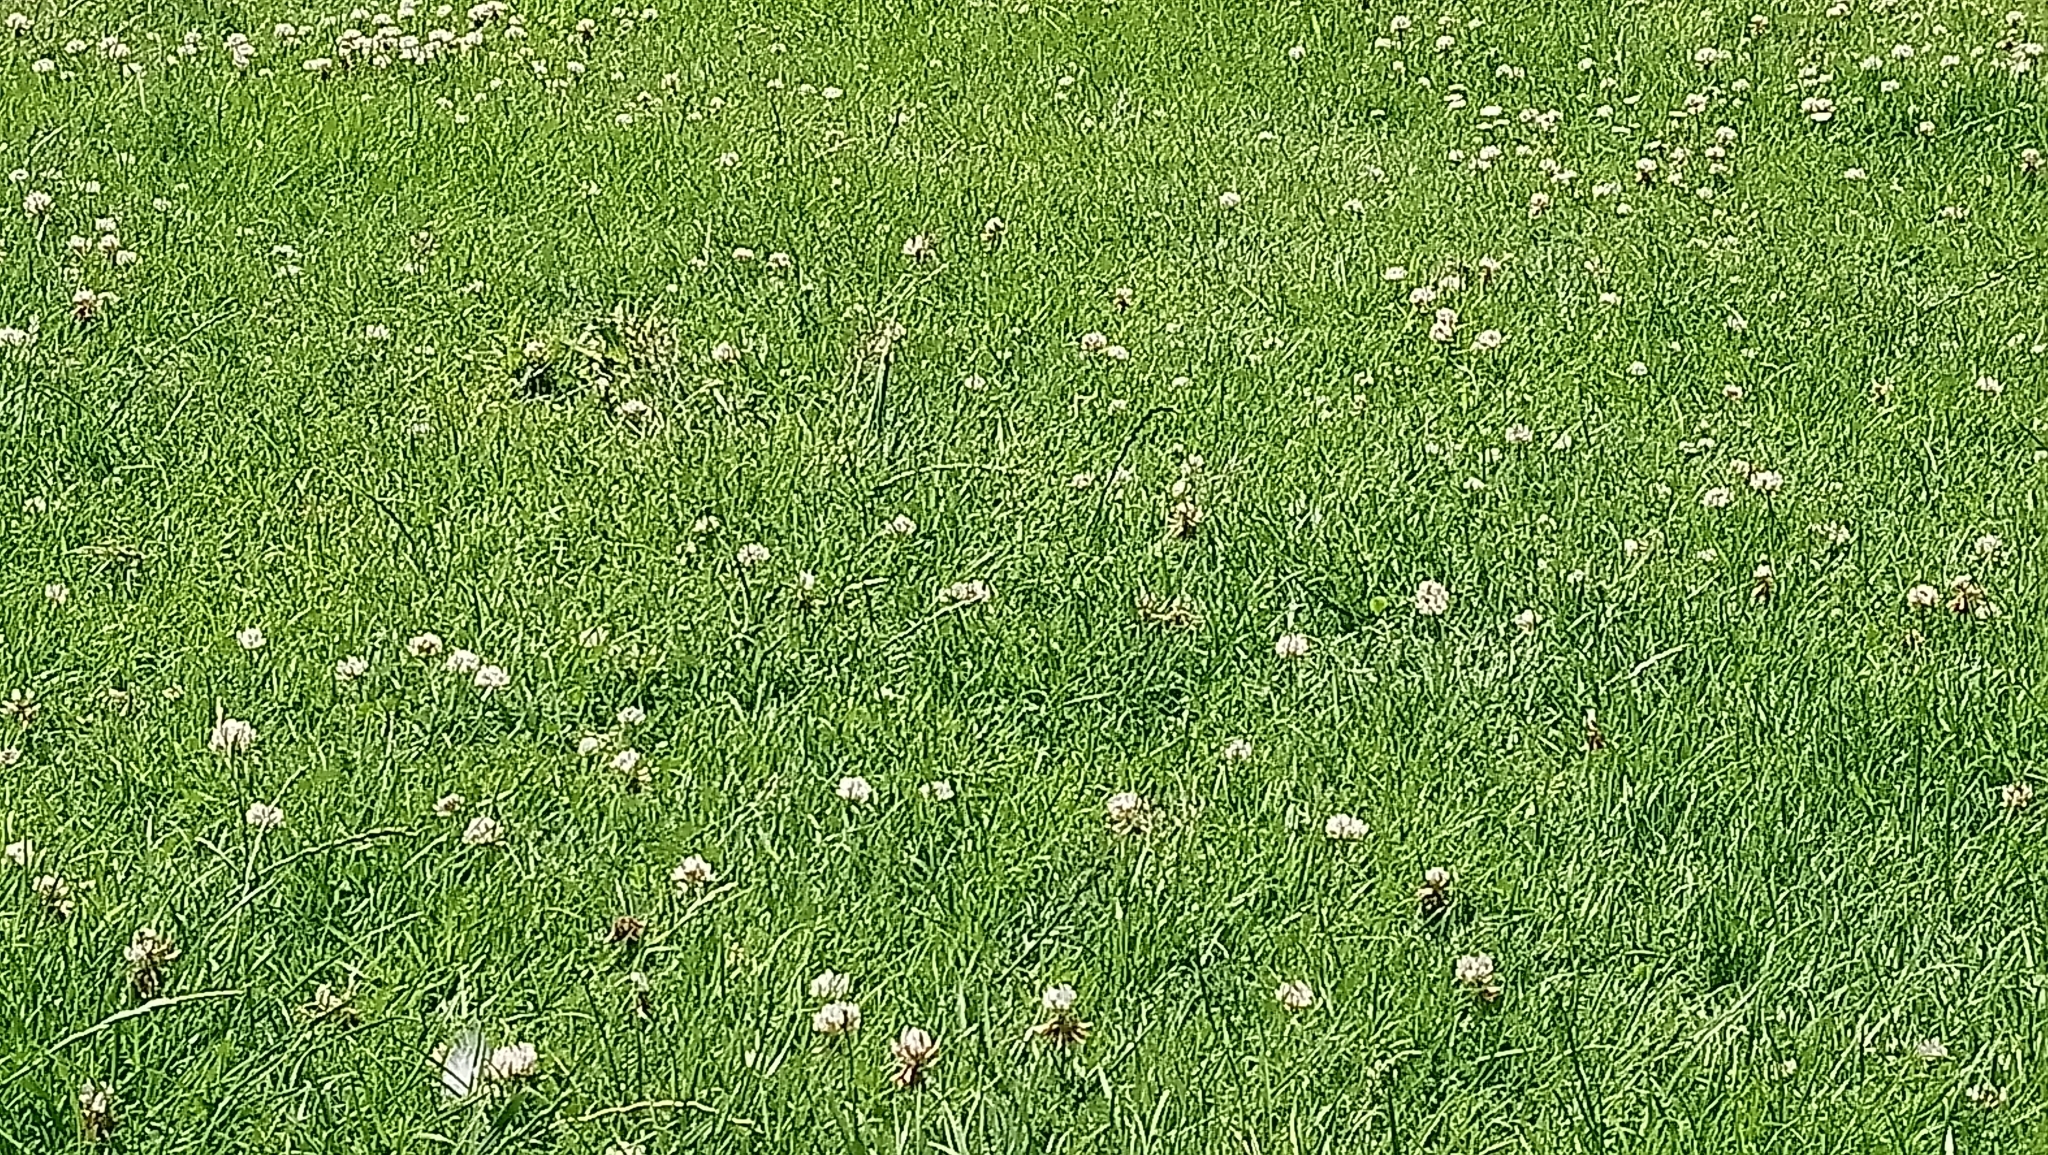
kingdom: Plantae
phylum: Tracheophyta
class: Magnoliopsida
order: Fabales
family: Fabaceae
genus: Trifolium
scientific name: Trifolium repens
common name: White clover
